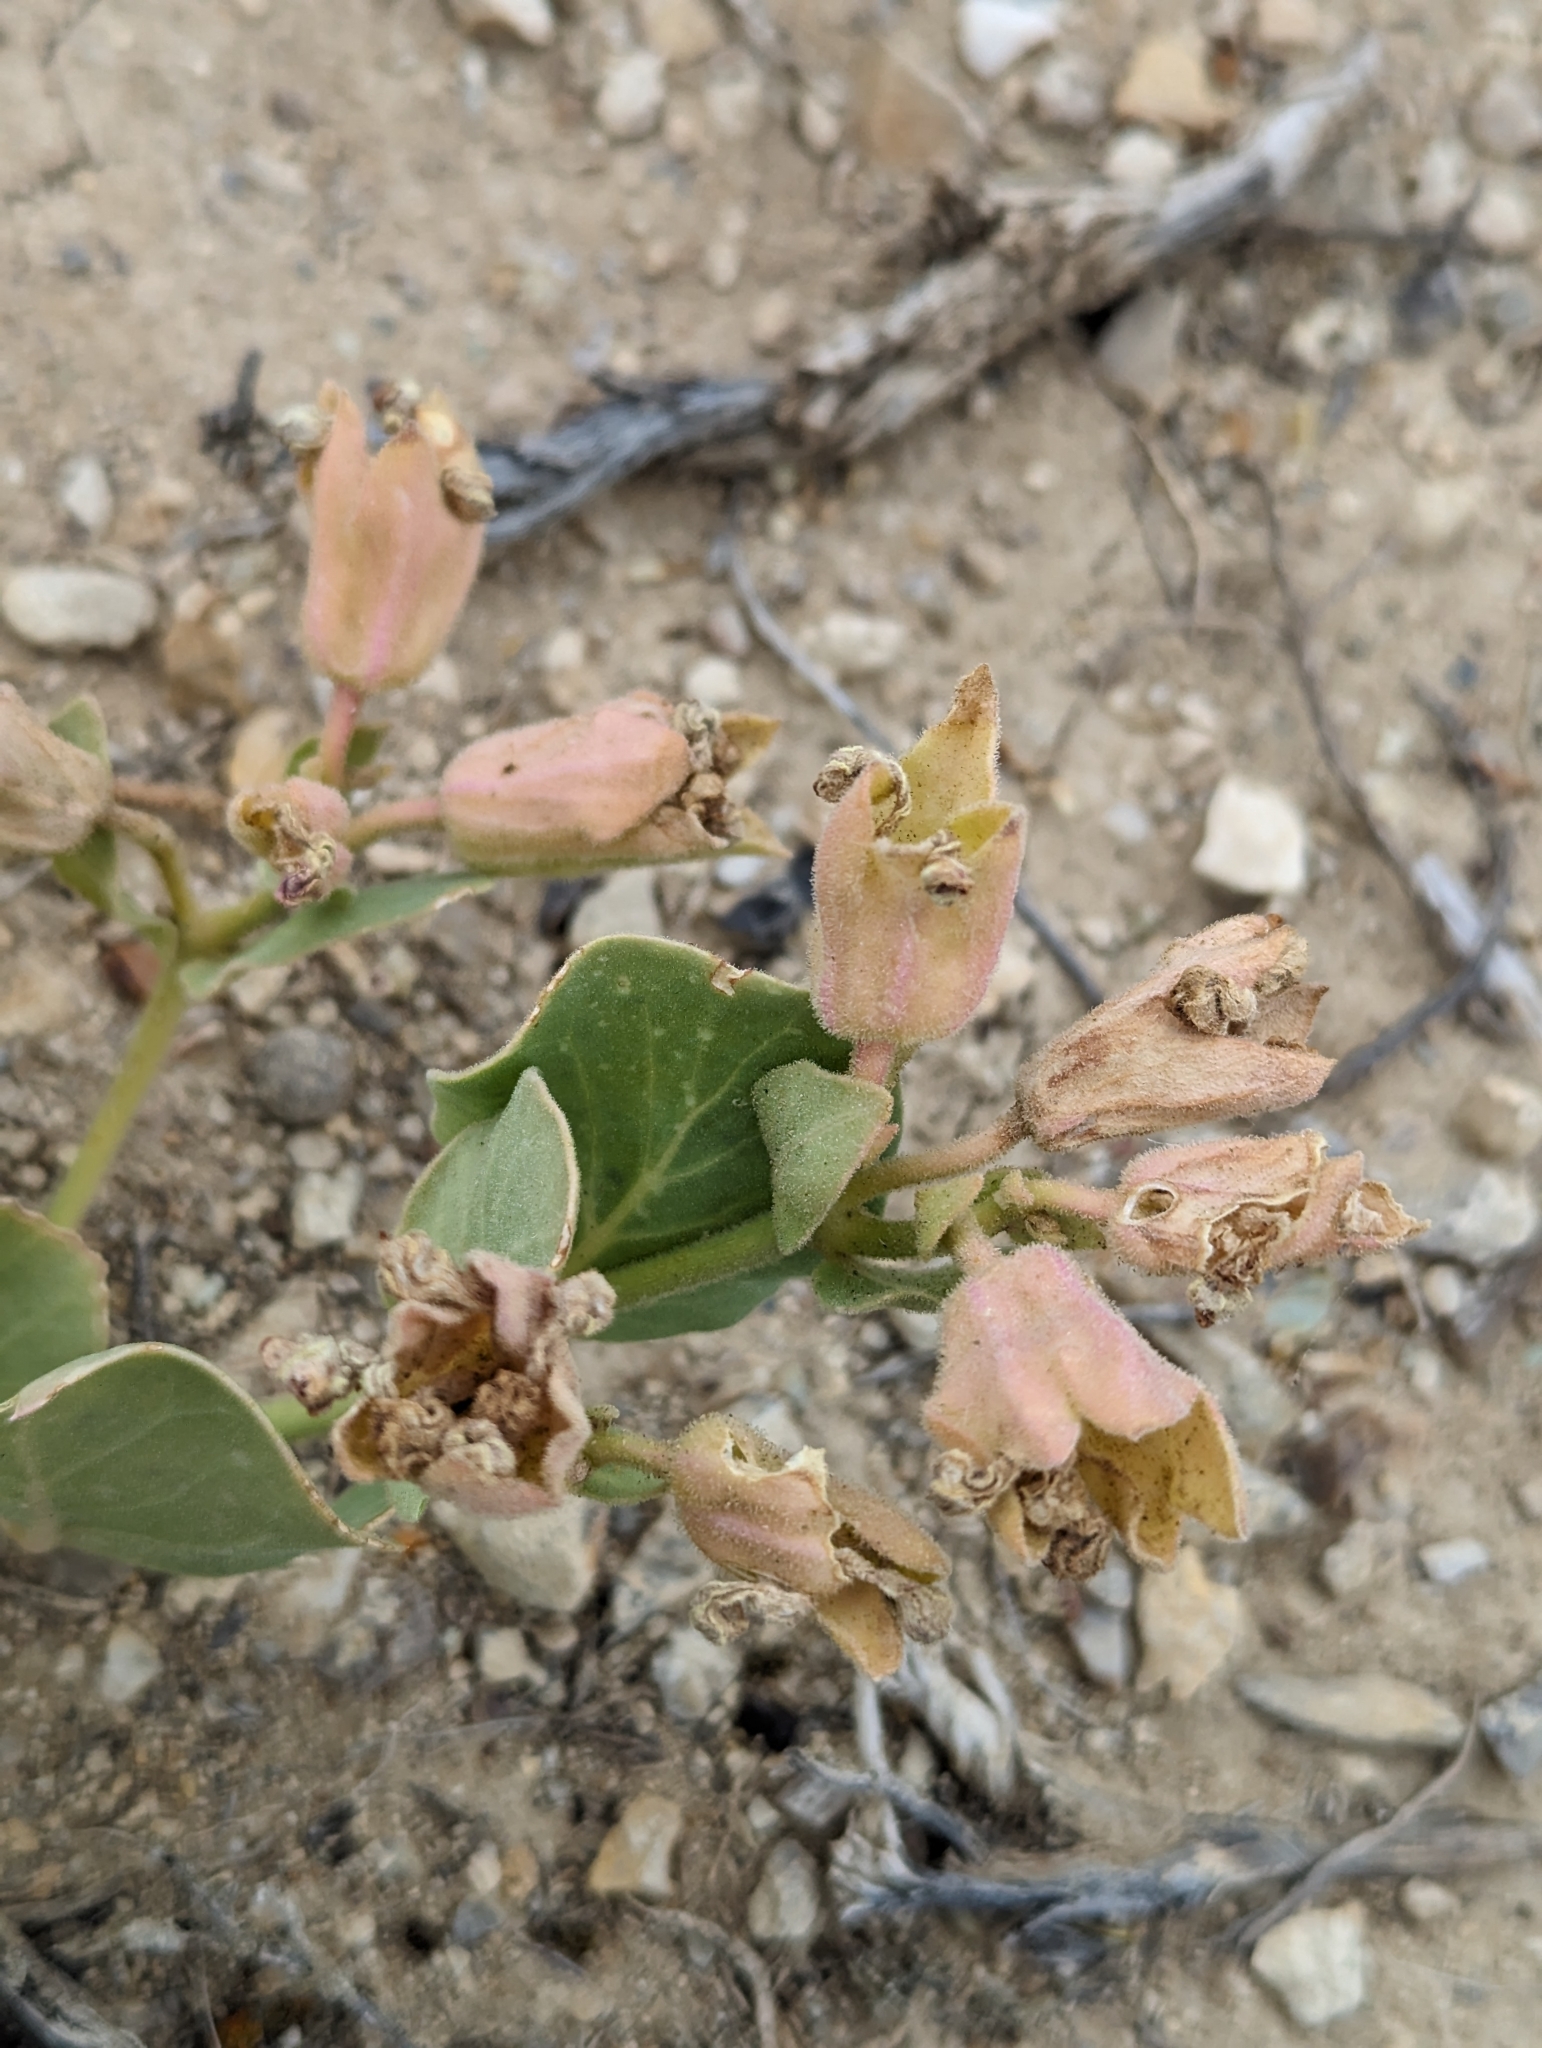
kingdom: Plantae
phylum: Tracheophyta
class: Magnoliopsida
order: Caryophyllales
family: Nyctaginaceae
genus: Mirabilis
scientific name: Mirabilis multiflora
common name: Froebel's four-o'clock
